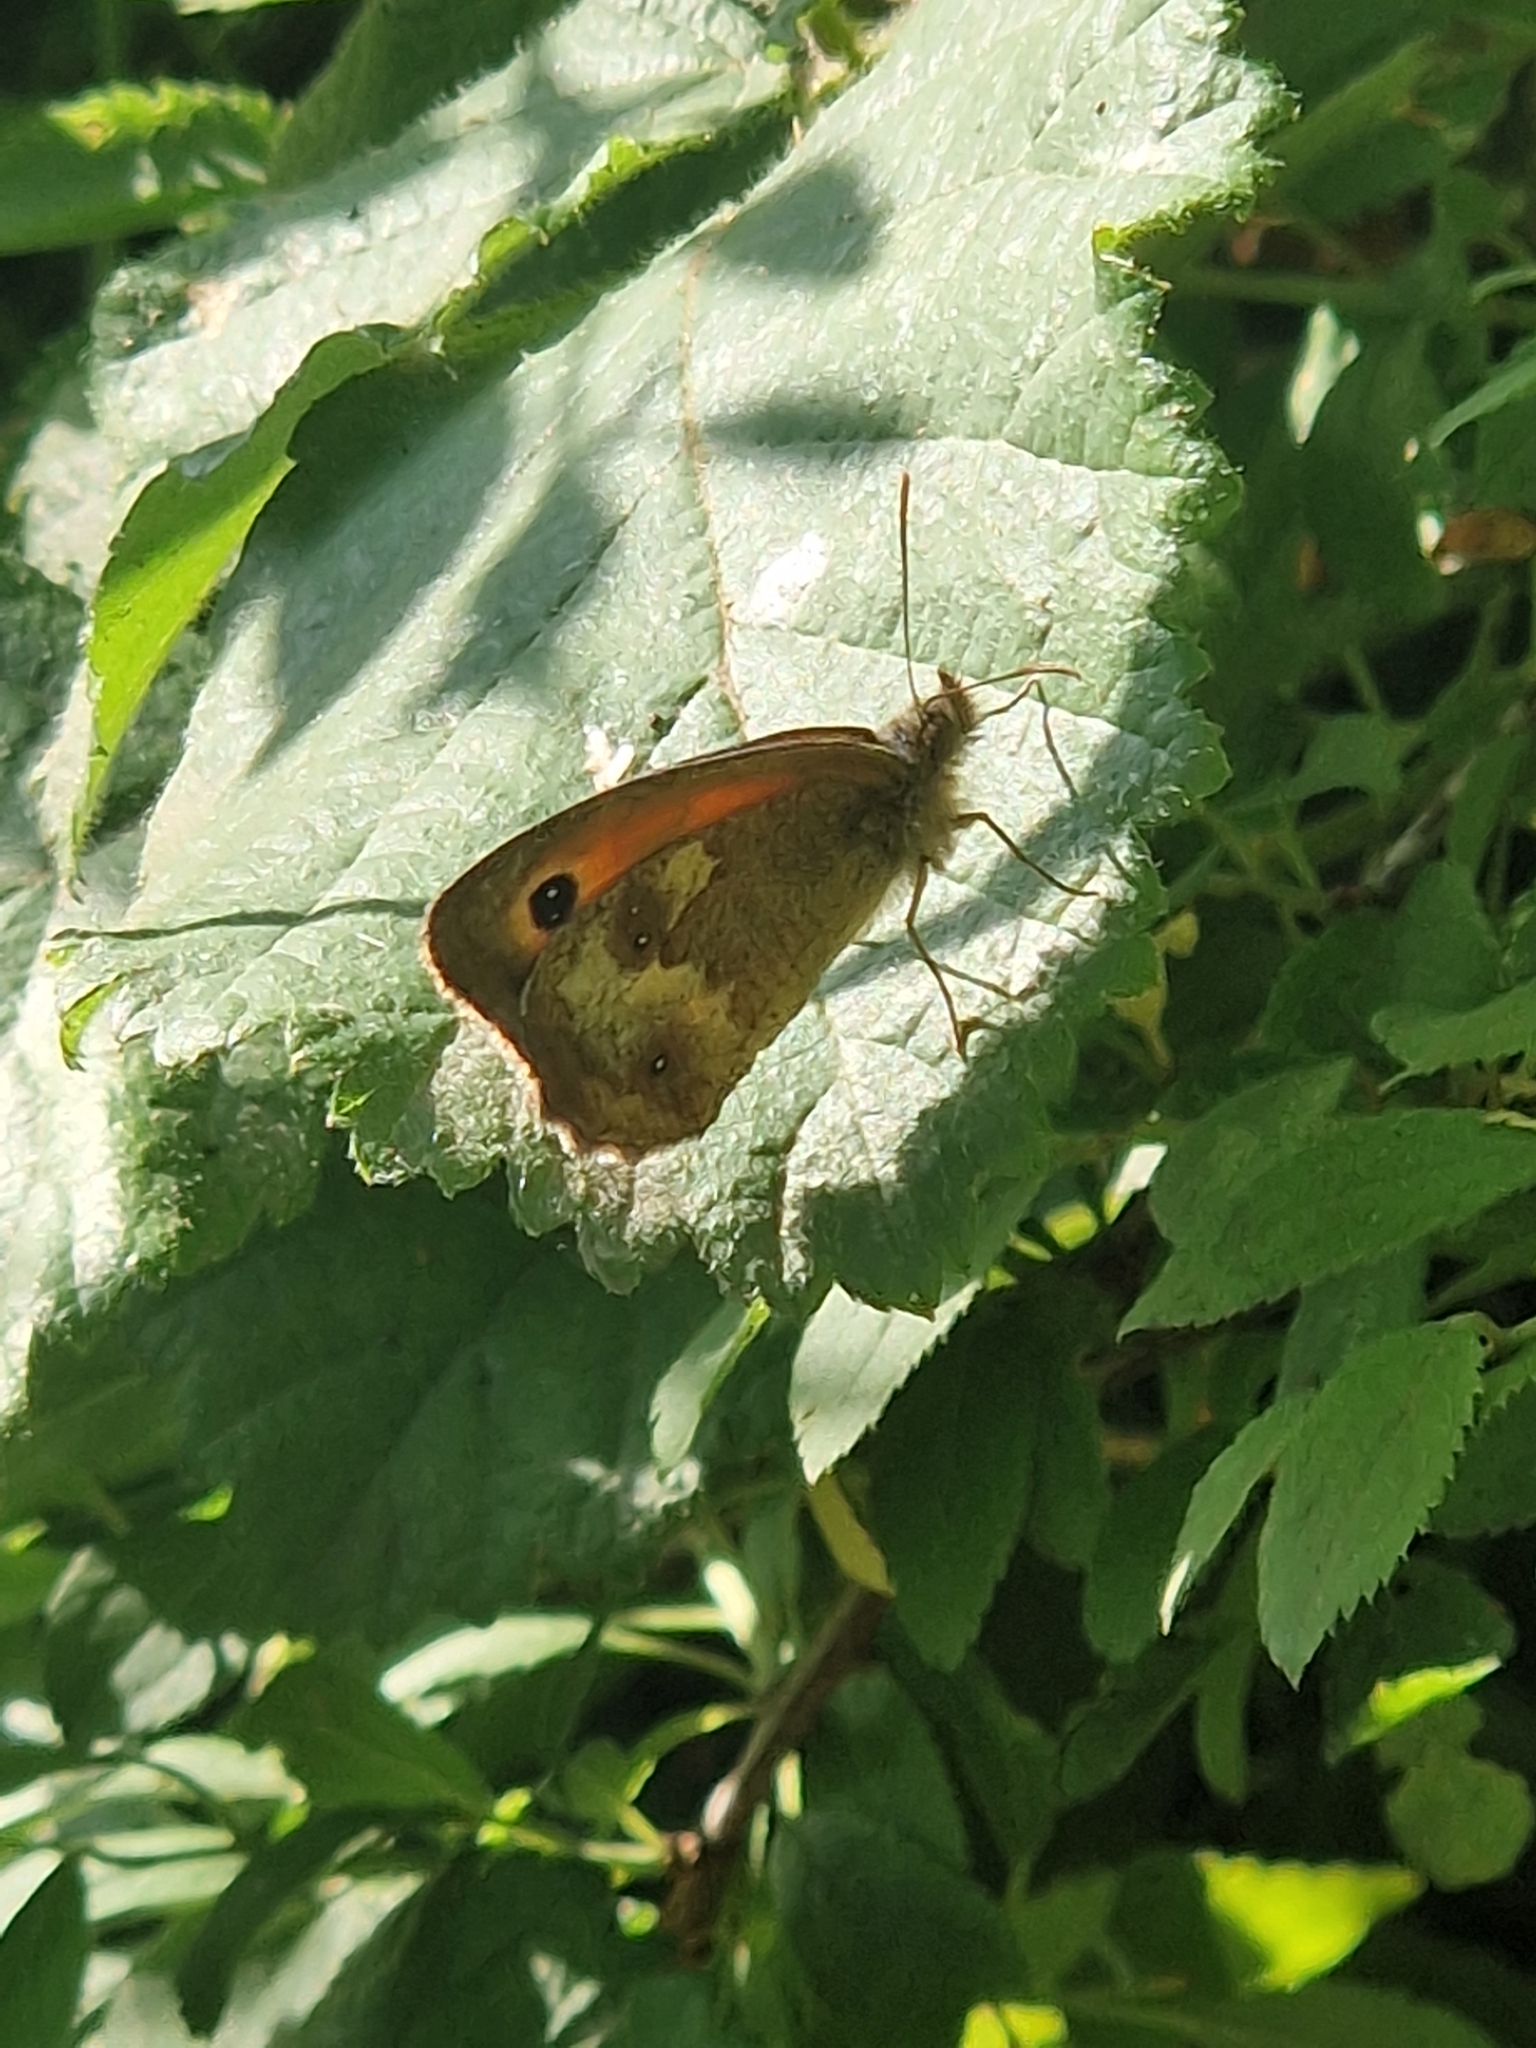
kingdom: Animalia
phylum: Arthropoda
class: Insecta
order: Lepidoptera
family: Nymphalidae
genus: Pyronia
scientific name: Pyronia tithonus
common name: Gatekeeper
